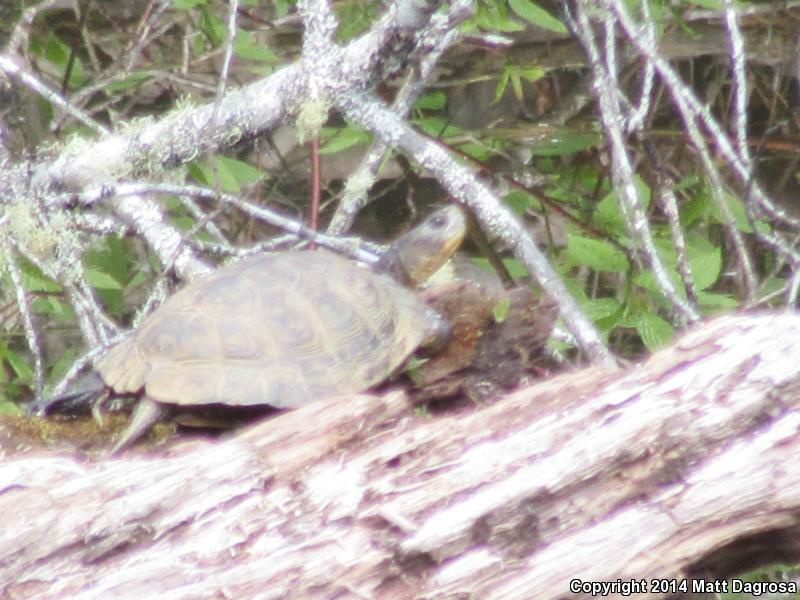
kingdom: Animalia
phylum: Chordata
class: Testudines
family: Emydidae
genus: Actinemys
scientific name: Actinemys marmorata
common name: Western pond turtle
